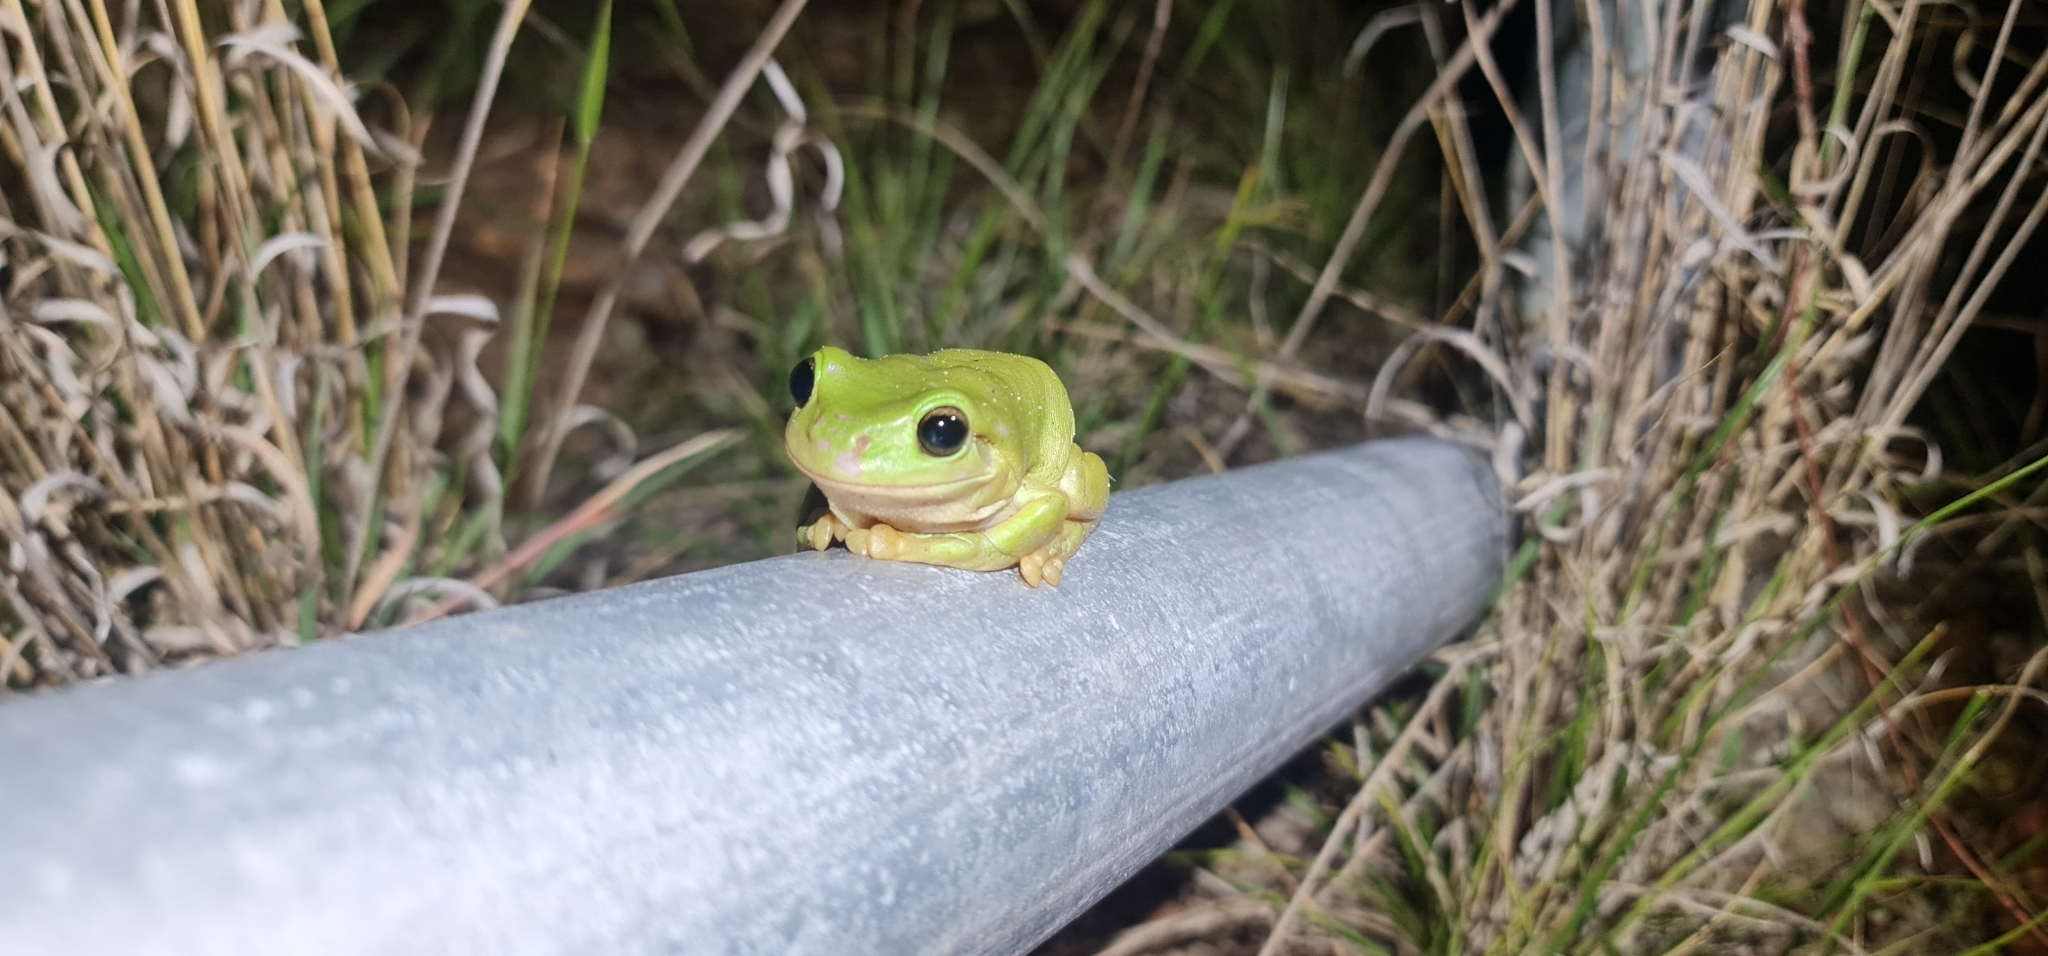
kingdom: Animalia
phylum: Chordata
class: Amphibia
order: Anura
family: Pelodryadidae
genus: Ranoidea
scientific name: Ranoidea caerulea
